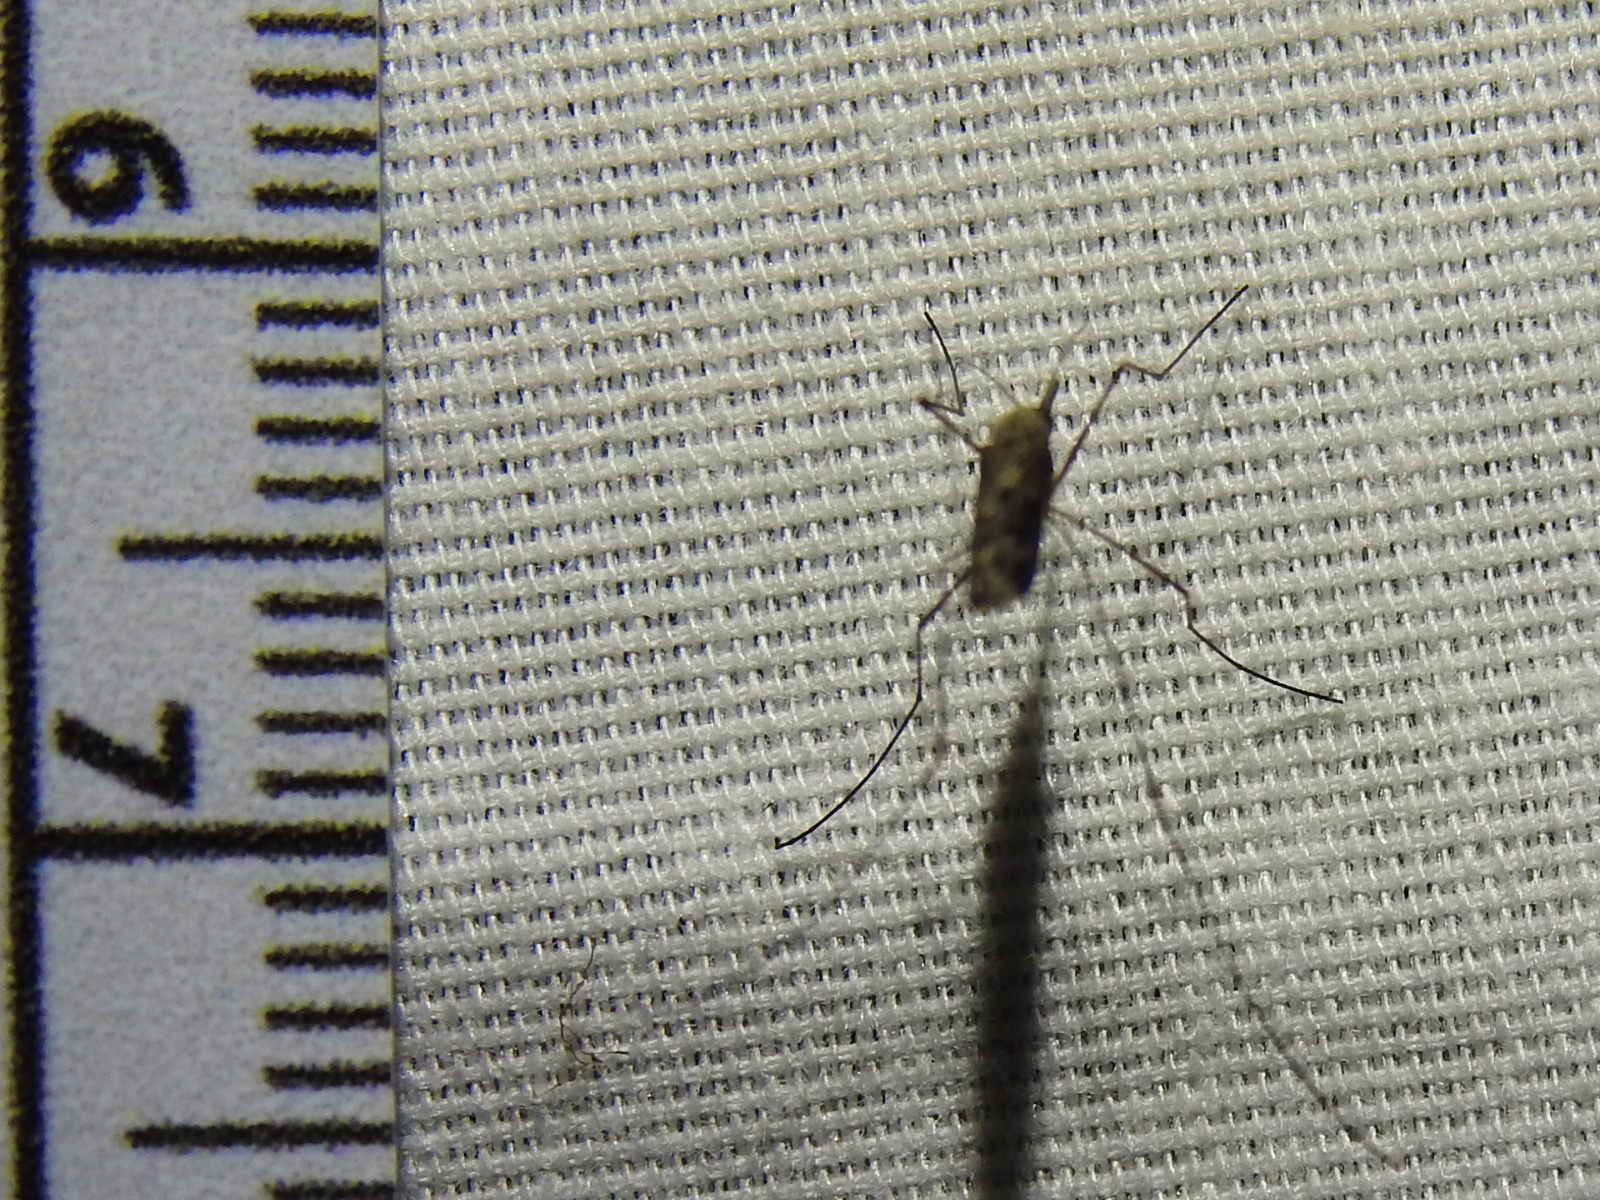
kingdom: Animalia
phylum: Arthropoda
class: Insecta
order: Diptera
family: Culicidae
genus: Anopheles
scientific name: Anopheles earlei
